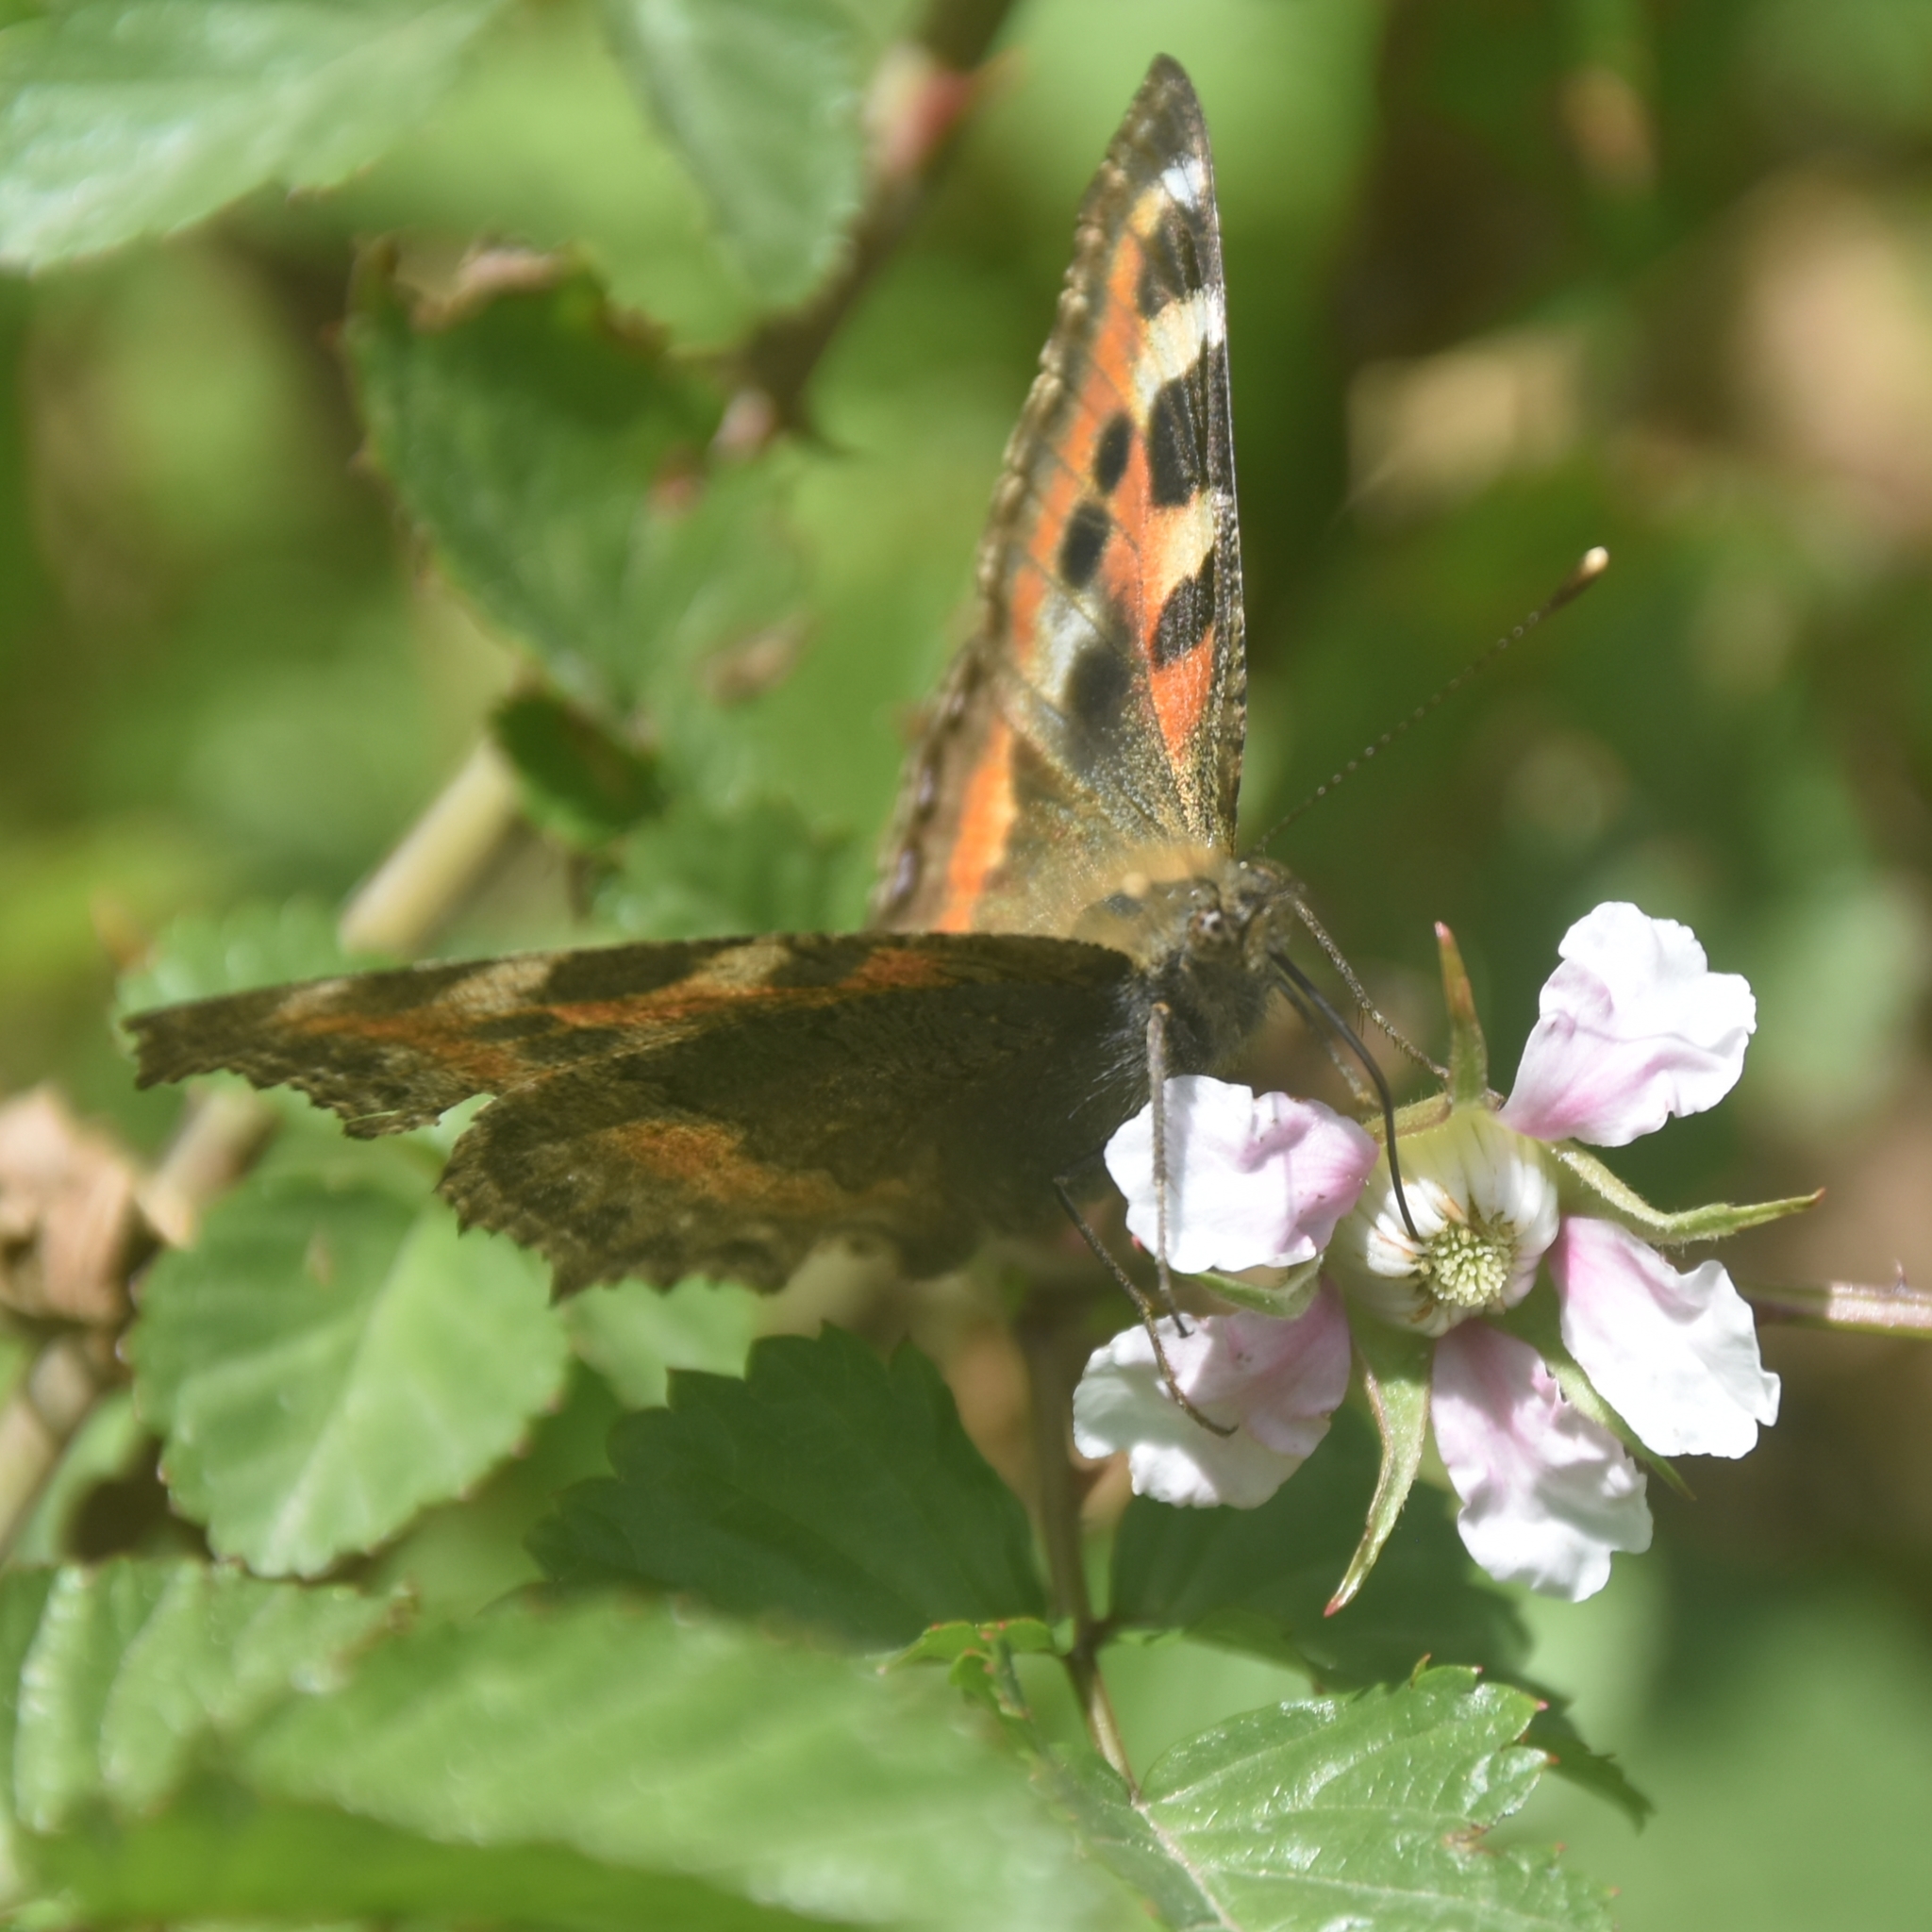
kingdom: Animalia
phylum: Arthropoda
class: Insecta
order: Lepidoptera
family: Nymphalidae
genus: Aglais
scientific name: Aglais caschmirensis
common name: Indian tortoiseshell
